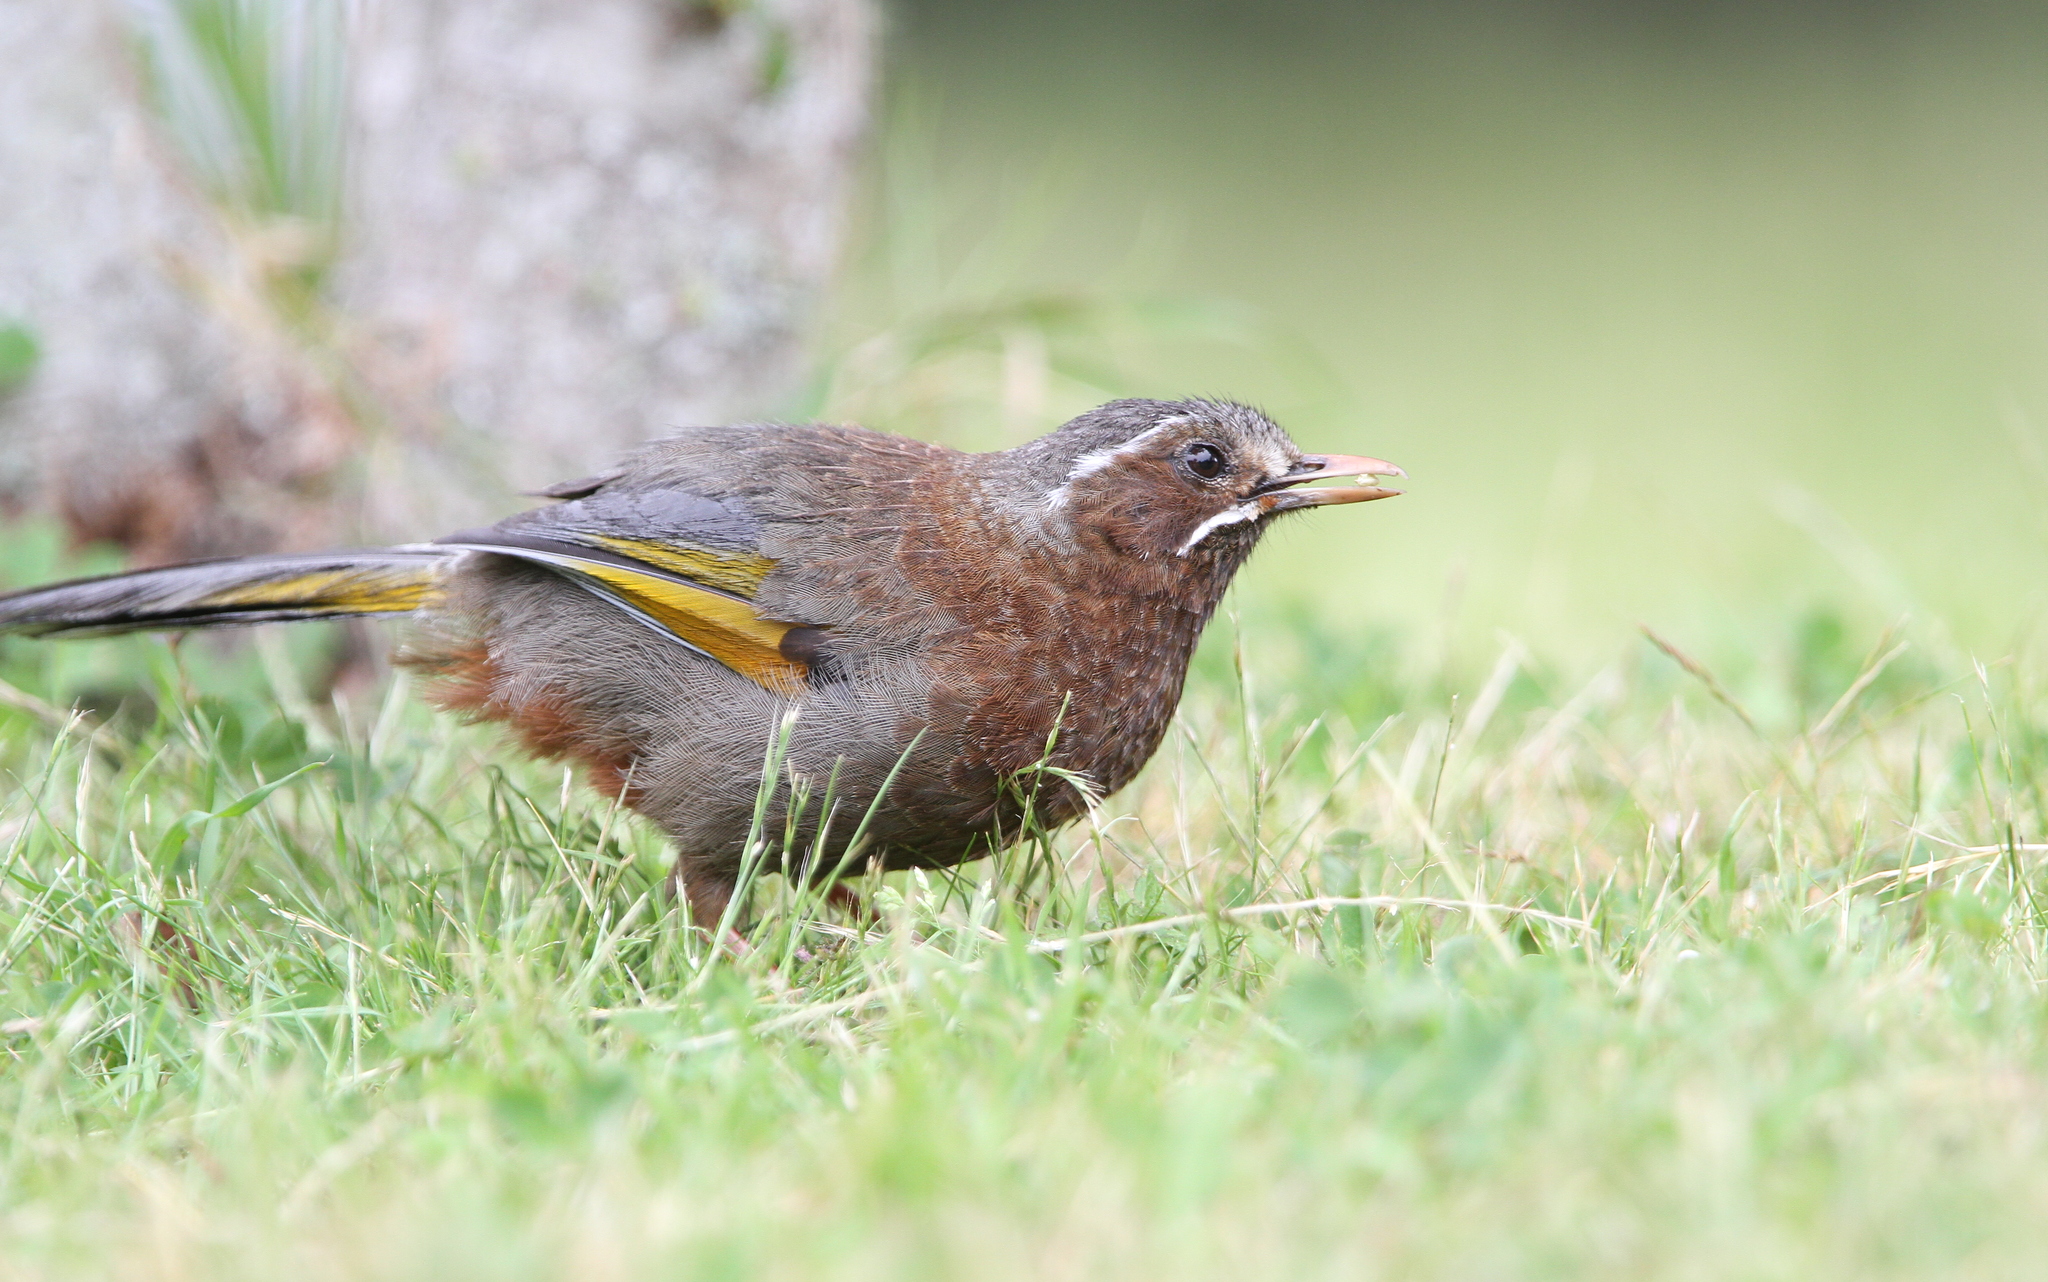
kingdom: Animalia
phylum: Chordata
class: Aves
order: Passeriformes
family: Leiothrichidae
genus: Trochalopteron
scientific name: Trochalopteron morrisonianum
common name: White-whiskered laughingthrush
